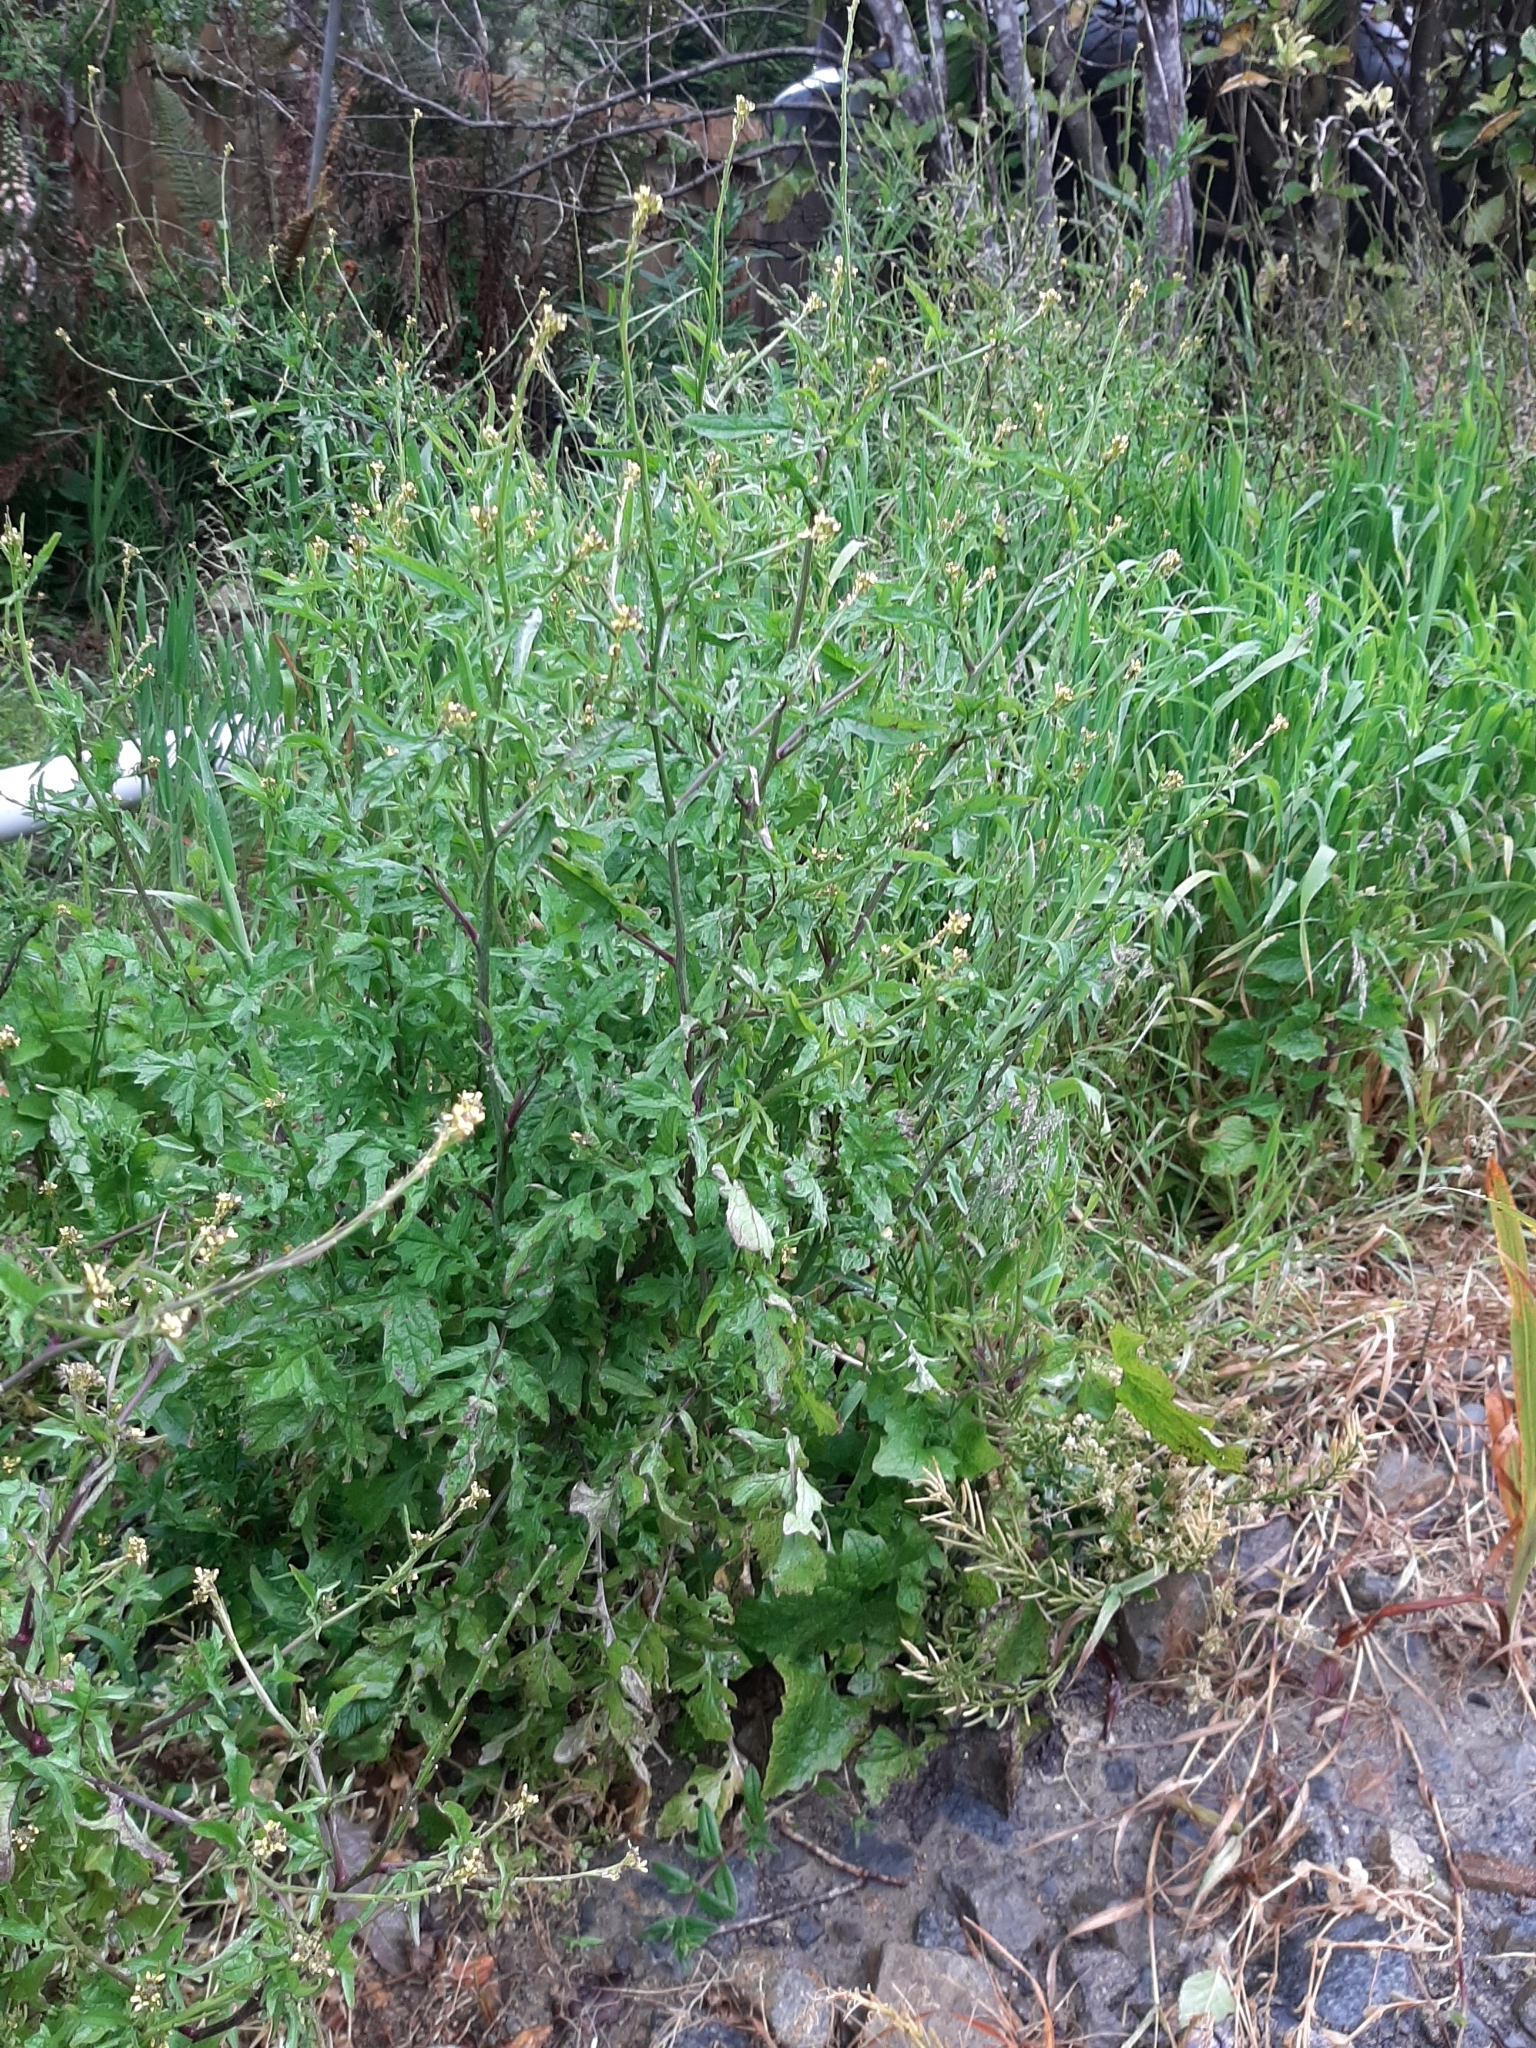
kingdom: Plantae
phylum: Tracheophyta
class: Magnoliopsida
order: Brassicales
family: Brassicaceae
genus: Sisymbrium
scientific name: Sisymbrium officinale
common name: Hedge mustard
